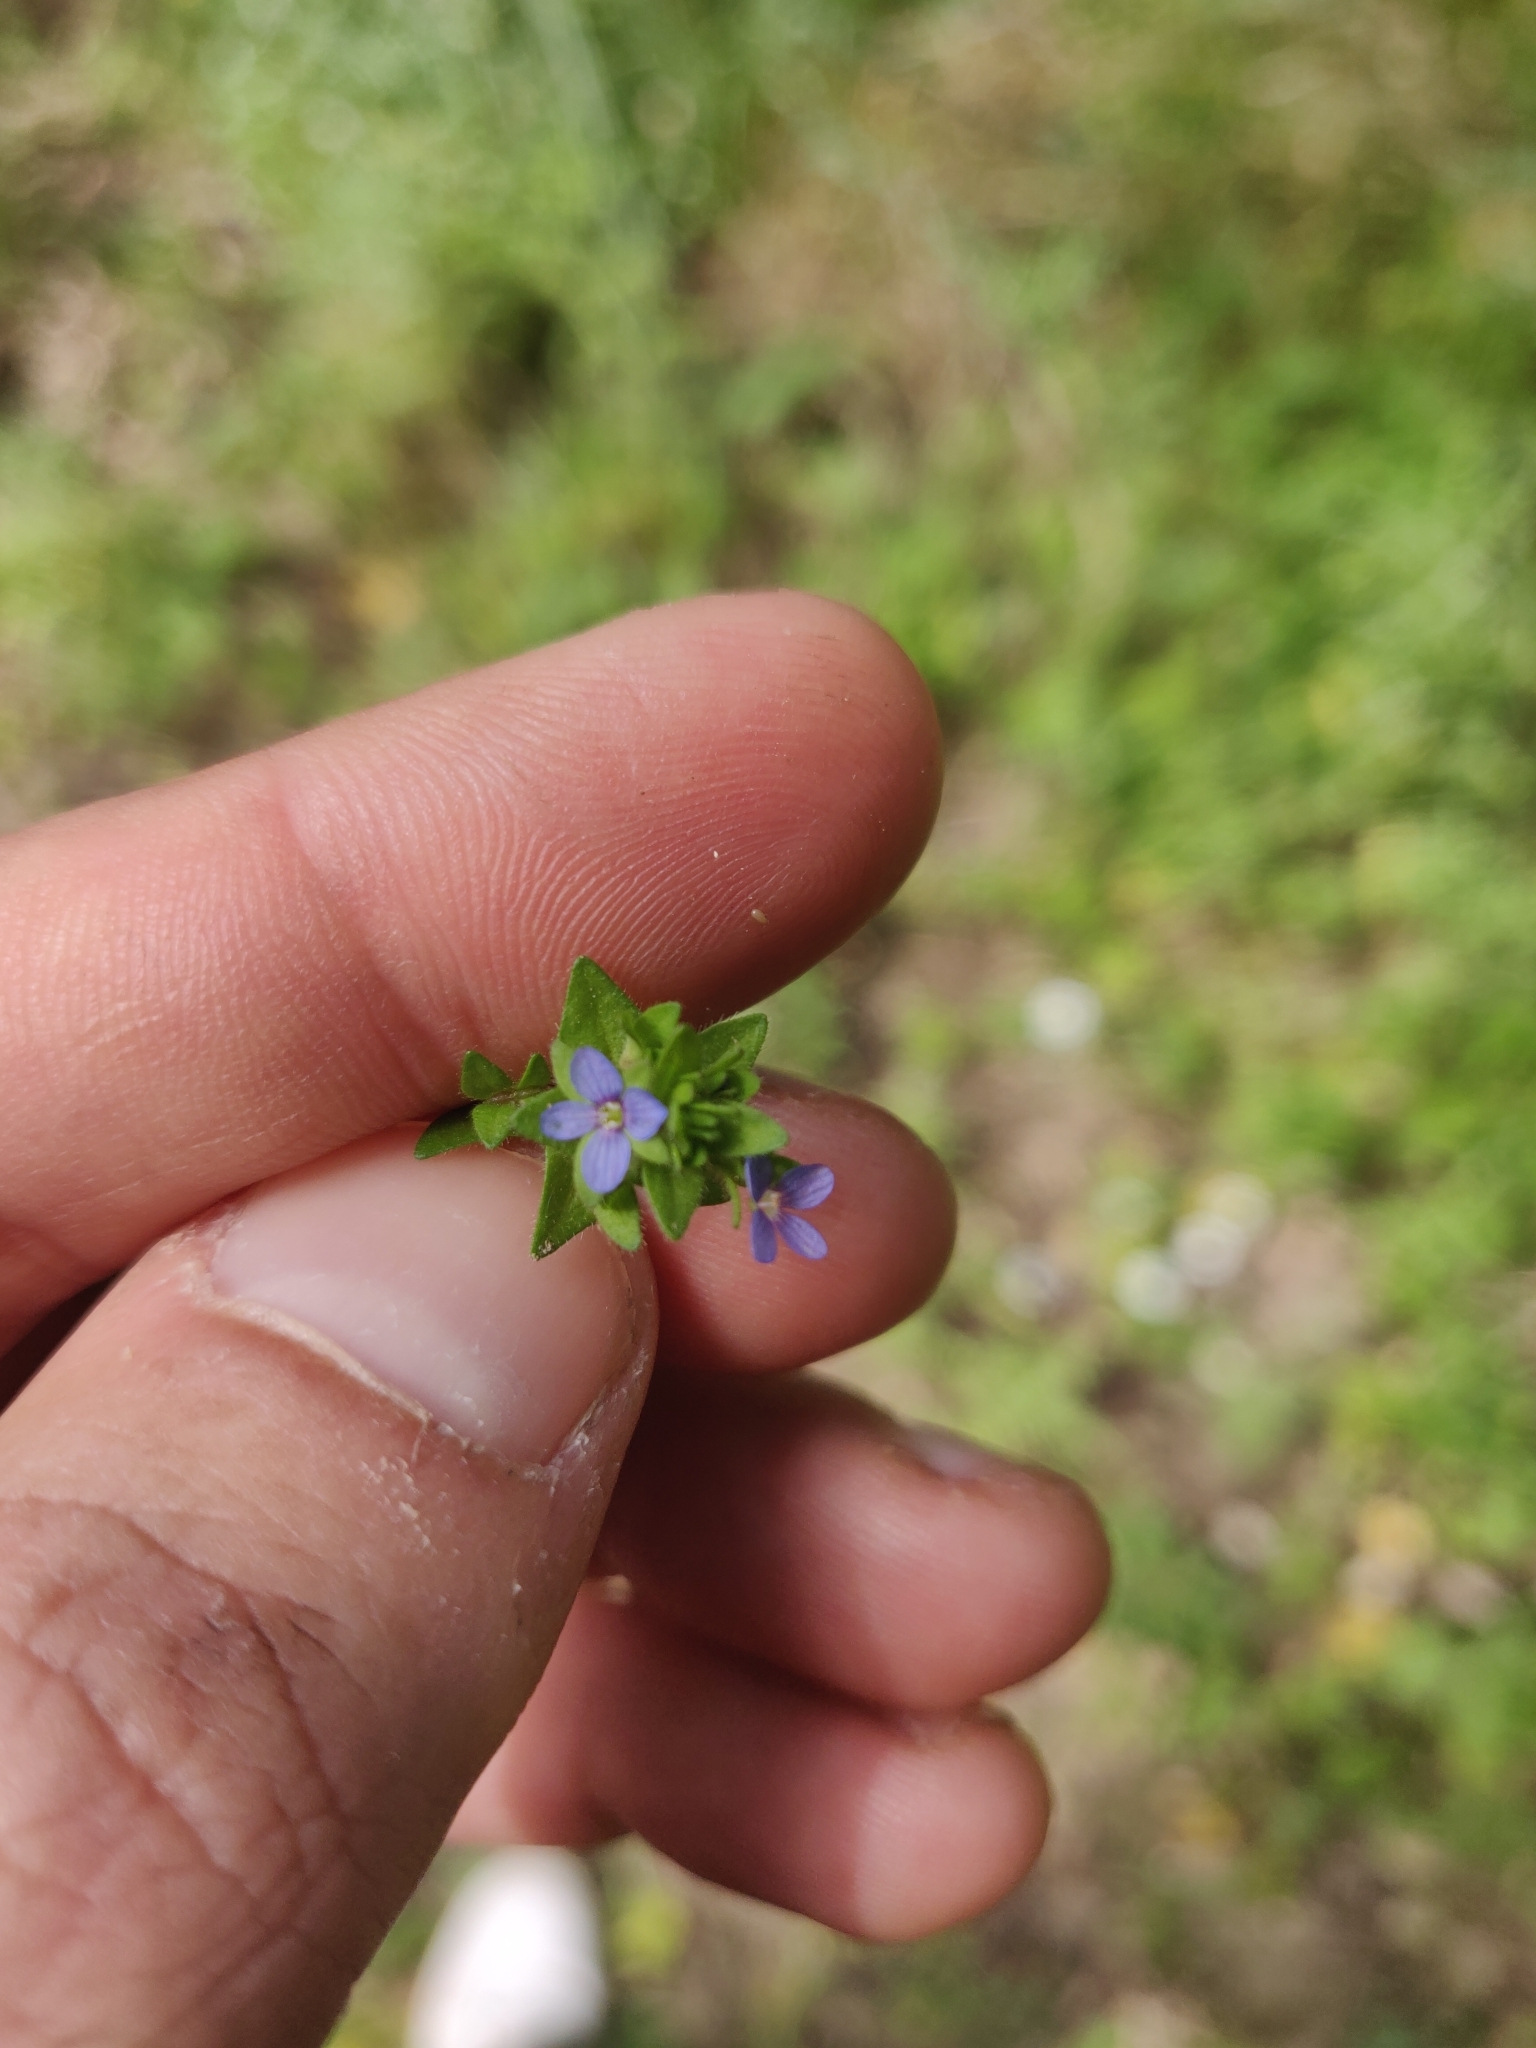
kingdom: Plantae
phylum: Tracheophyta
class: Magnoliopsida
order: Lamiales
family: Plantaginaceae
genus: Veronica
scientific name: Veronica arvensis
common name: Corn speedwell
